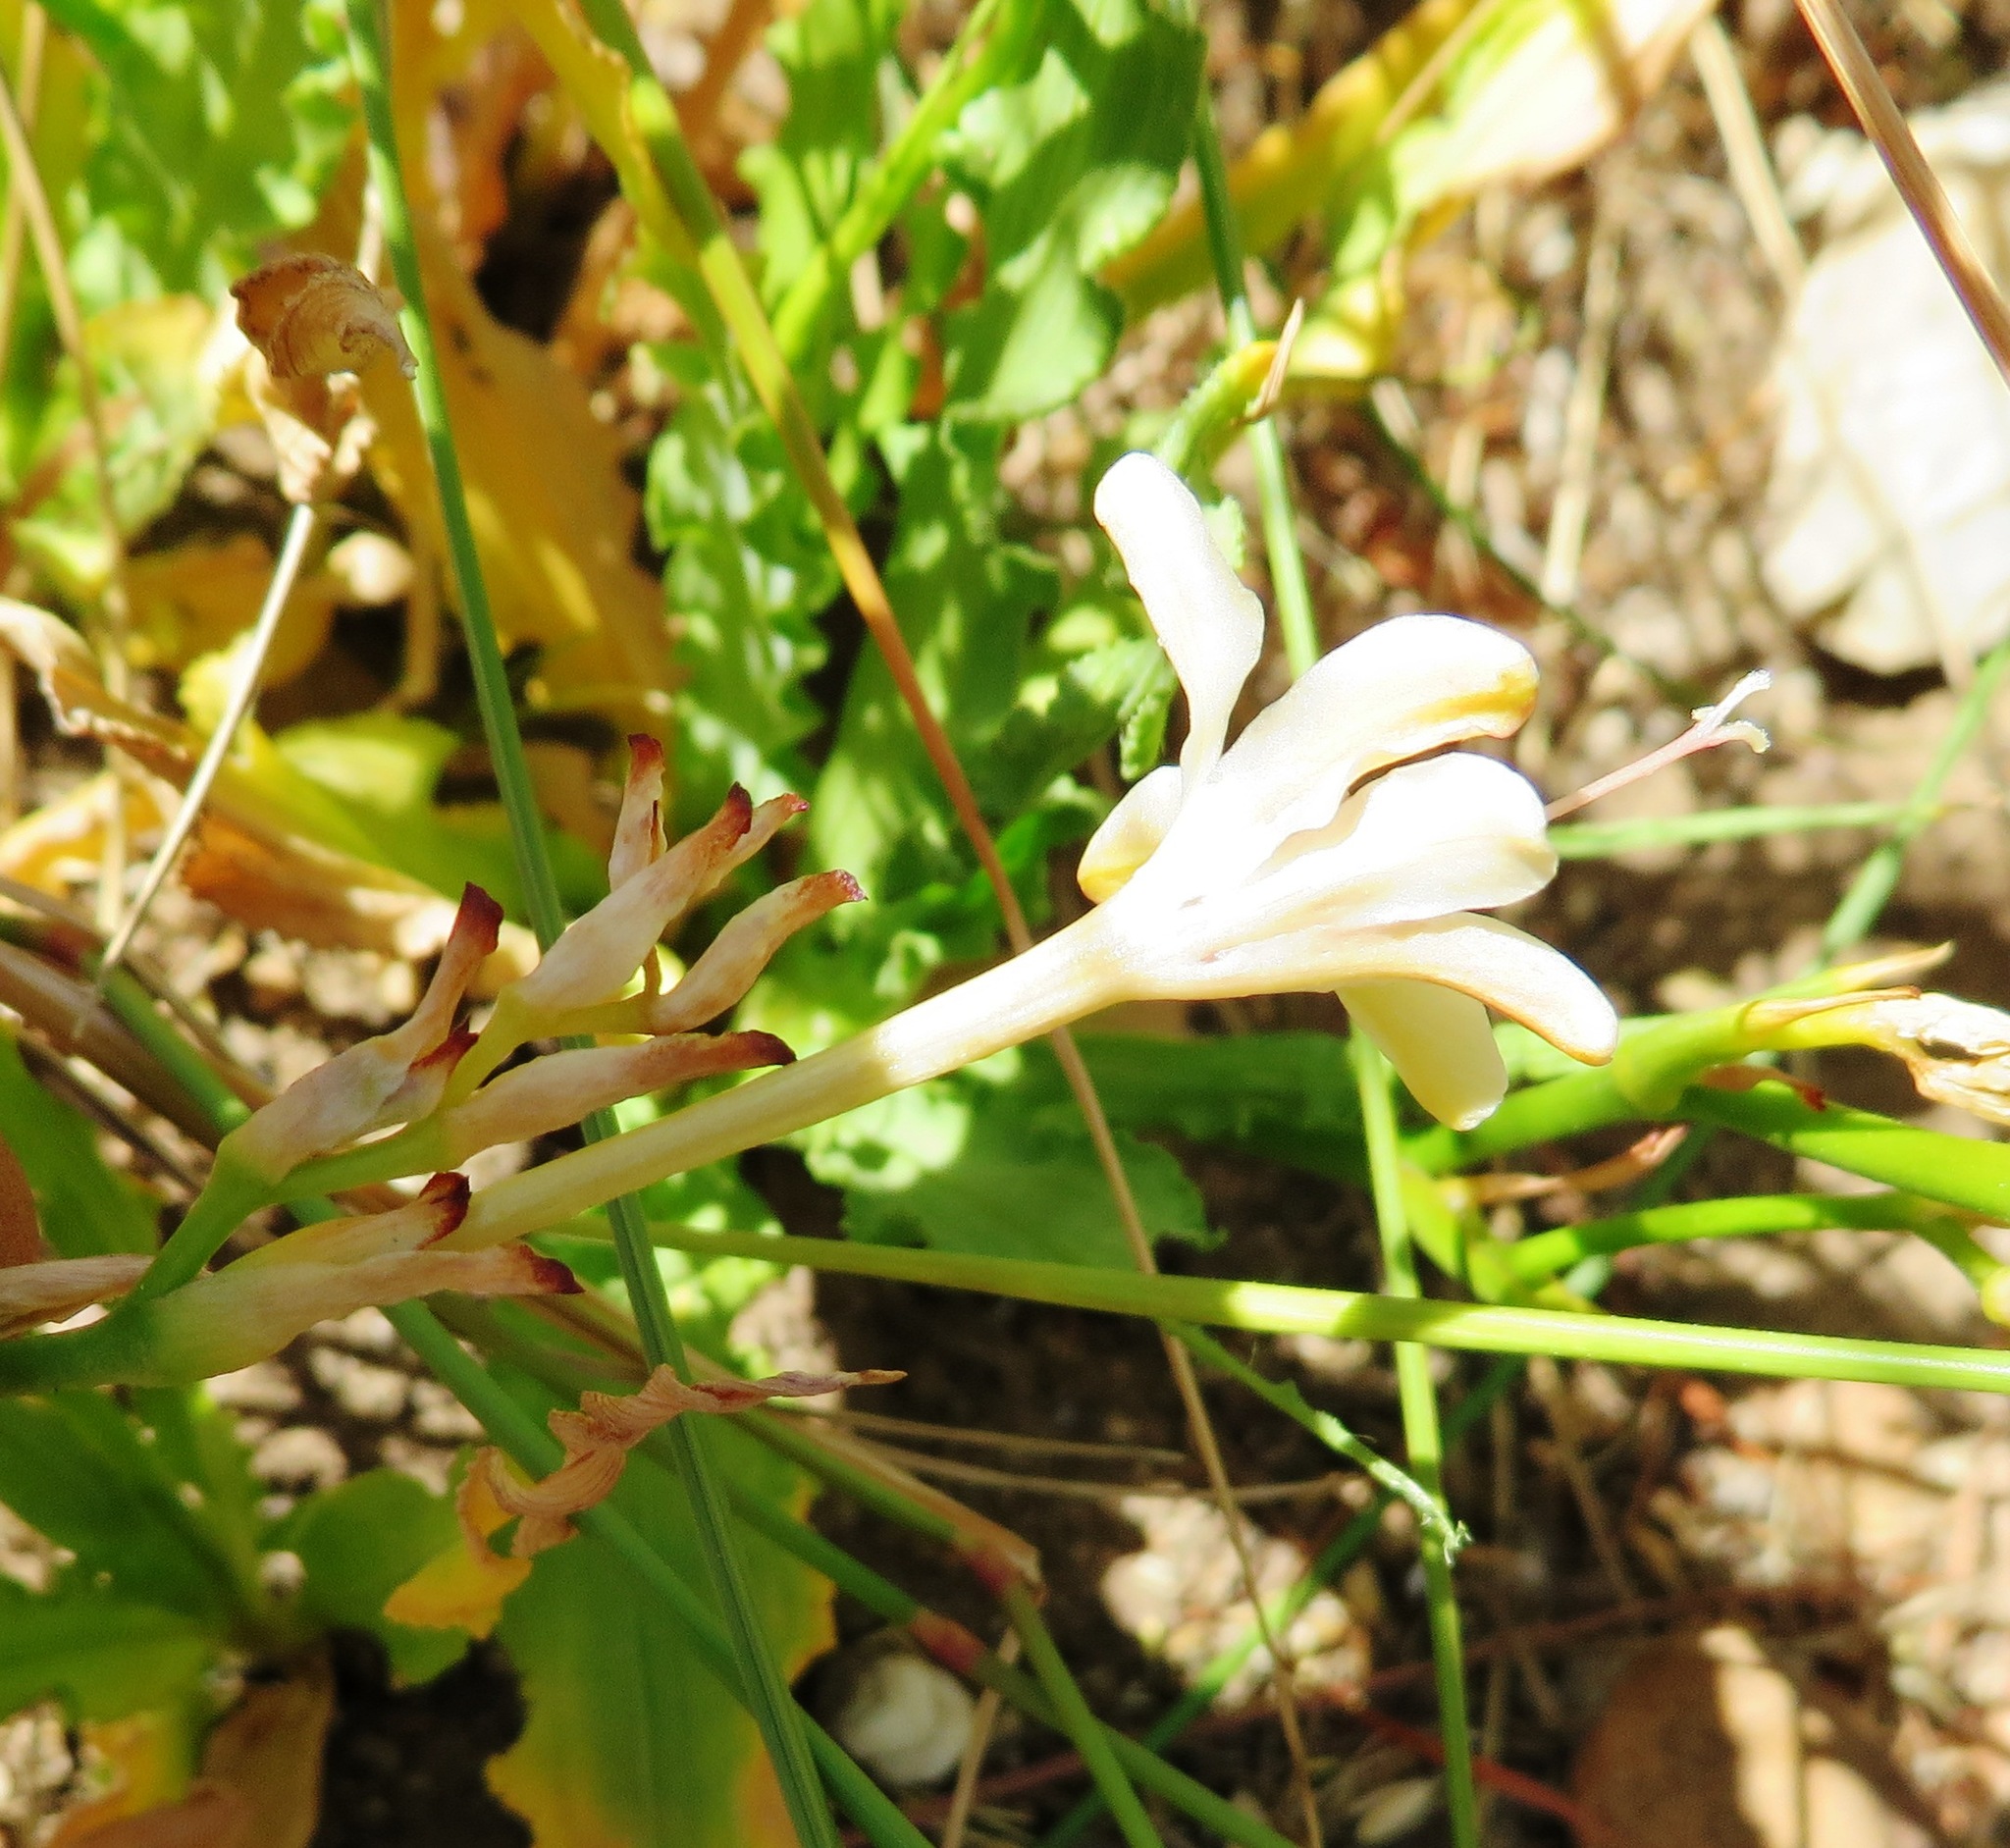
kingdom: Plantae
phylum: Tracheophyta
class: Liliopsida
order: Asparagales
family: Iridaceae
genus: Tritonia
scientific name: Tritonia undulata
